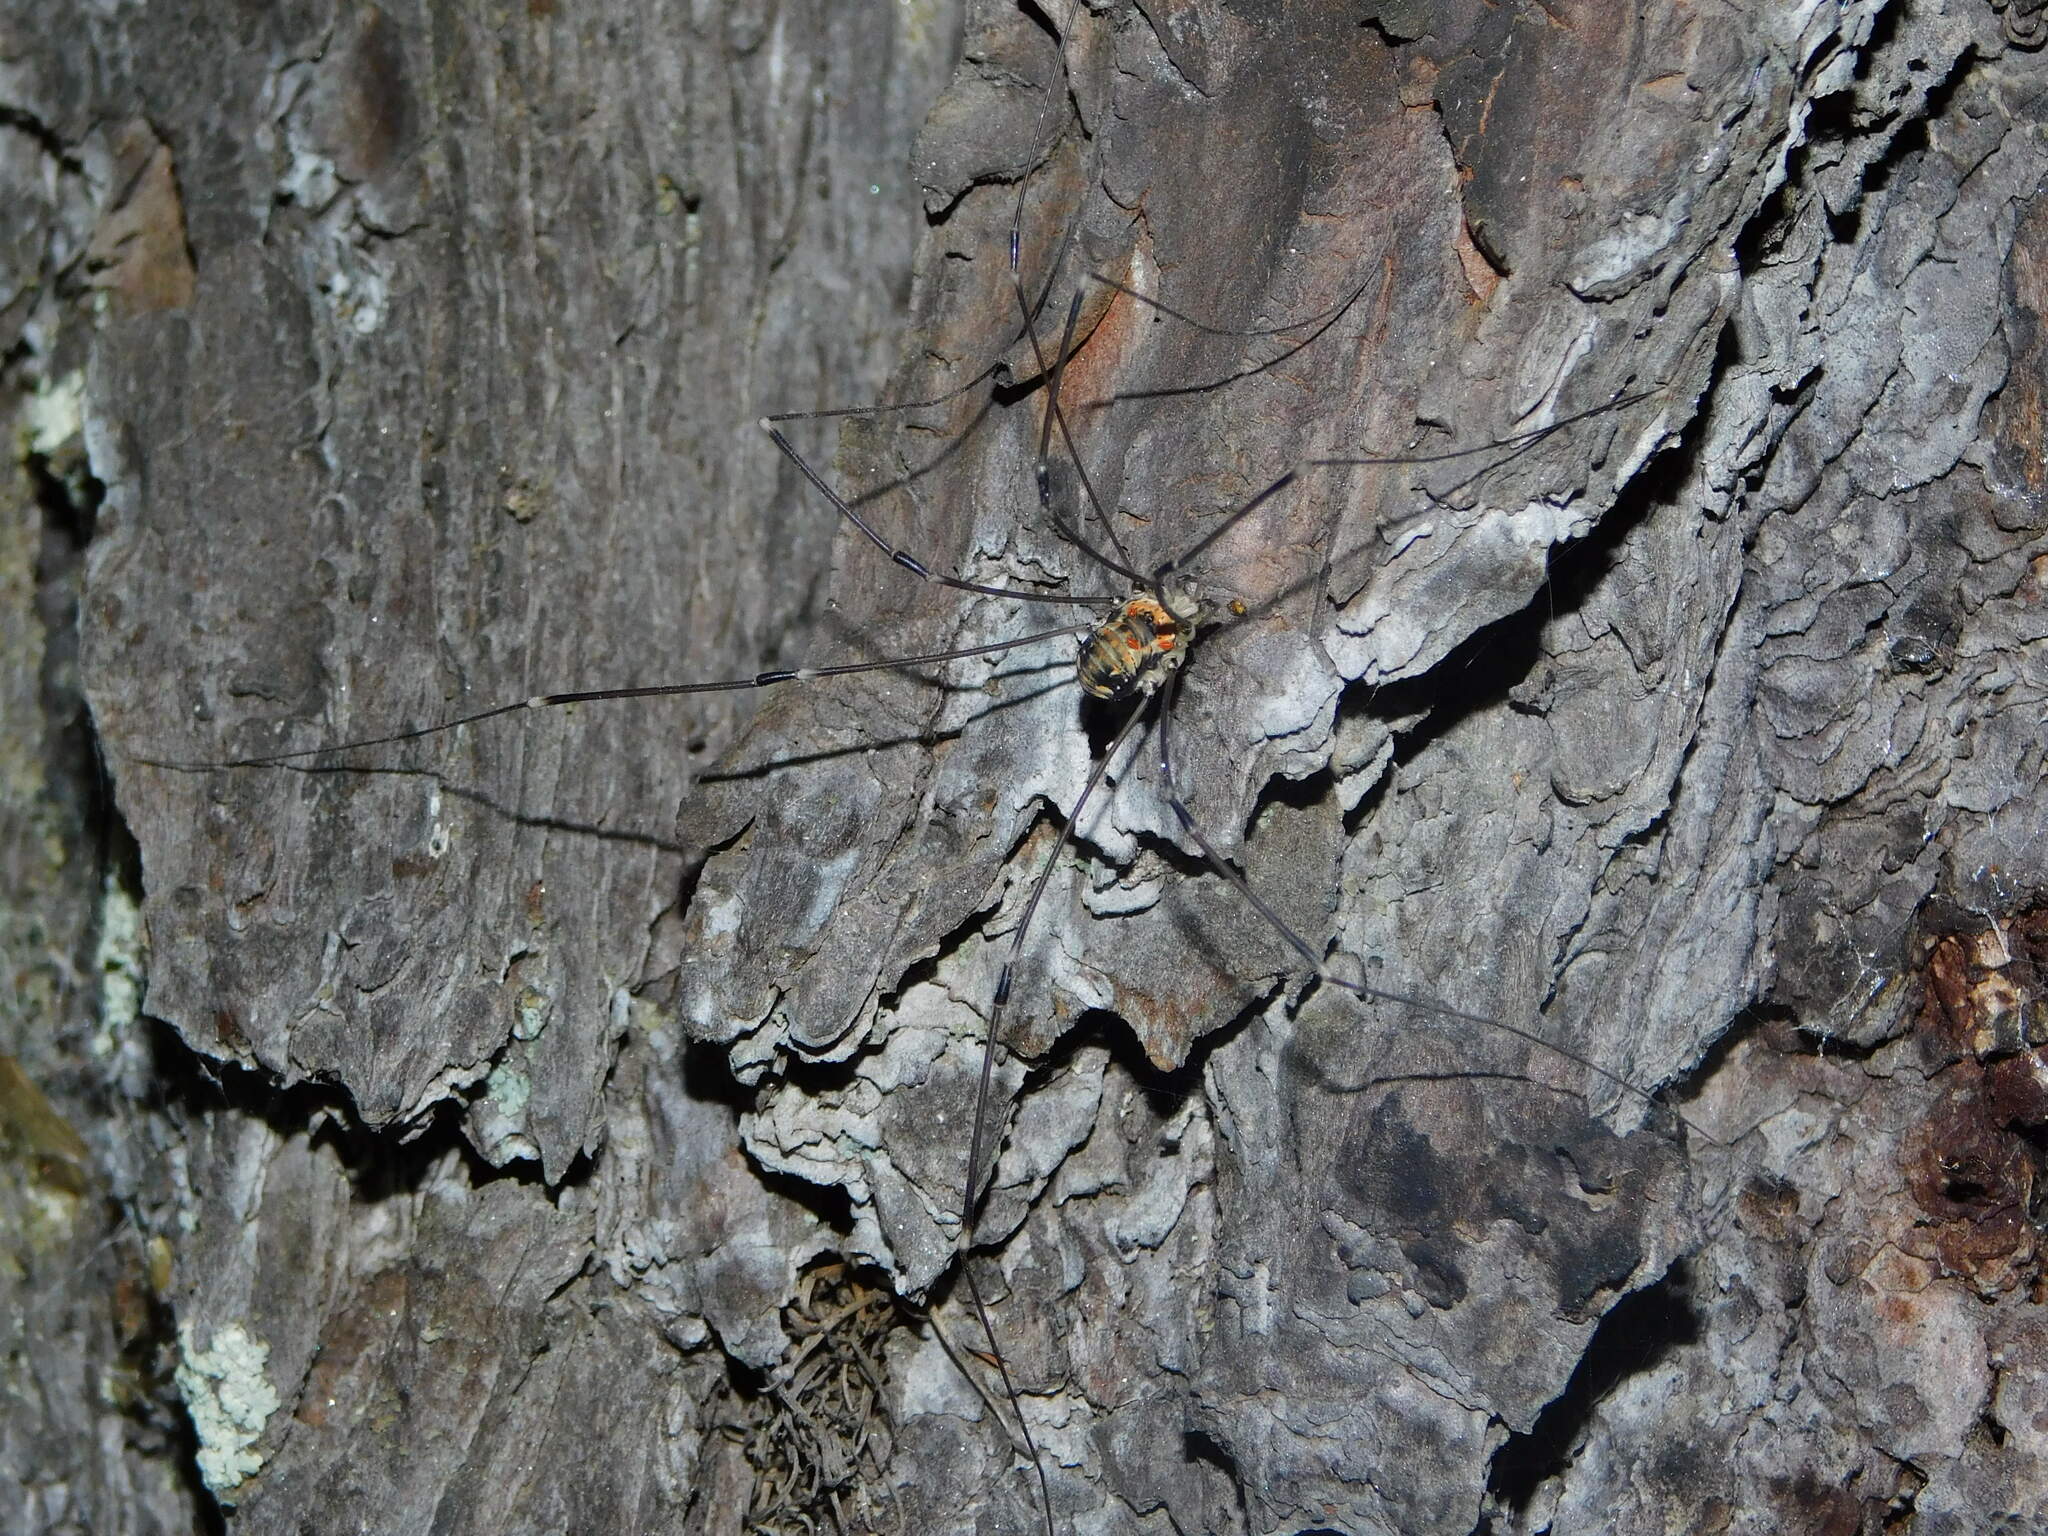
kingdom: Animalia
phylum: Arthropoda
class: Arachnida
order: Opiliones
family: Sclerosomatidae
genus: Leiobunum
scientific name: Leiobunum limbatum
